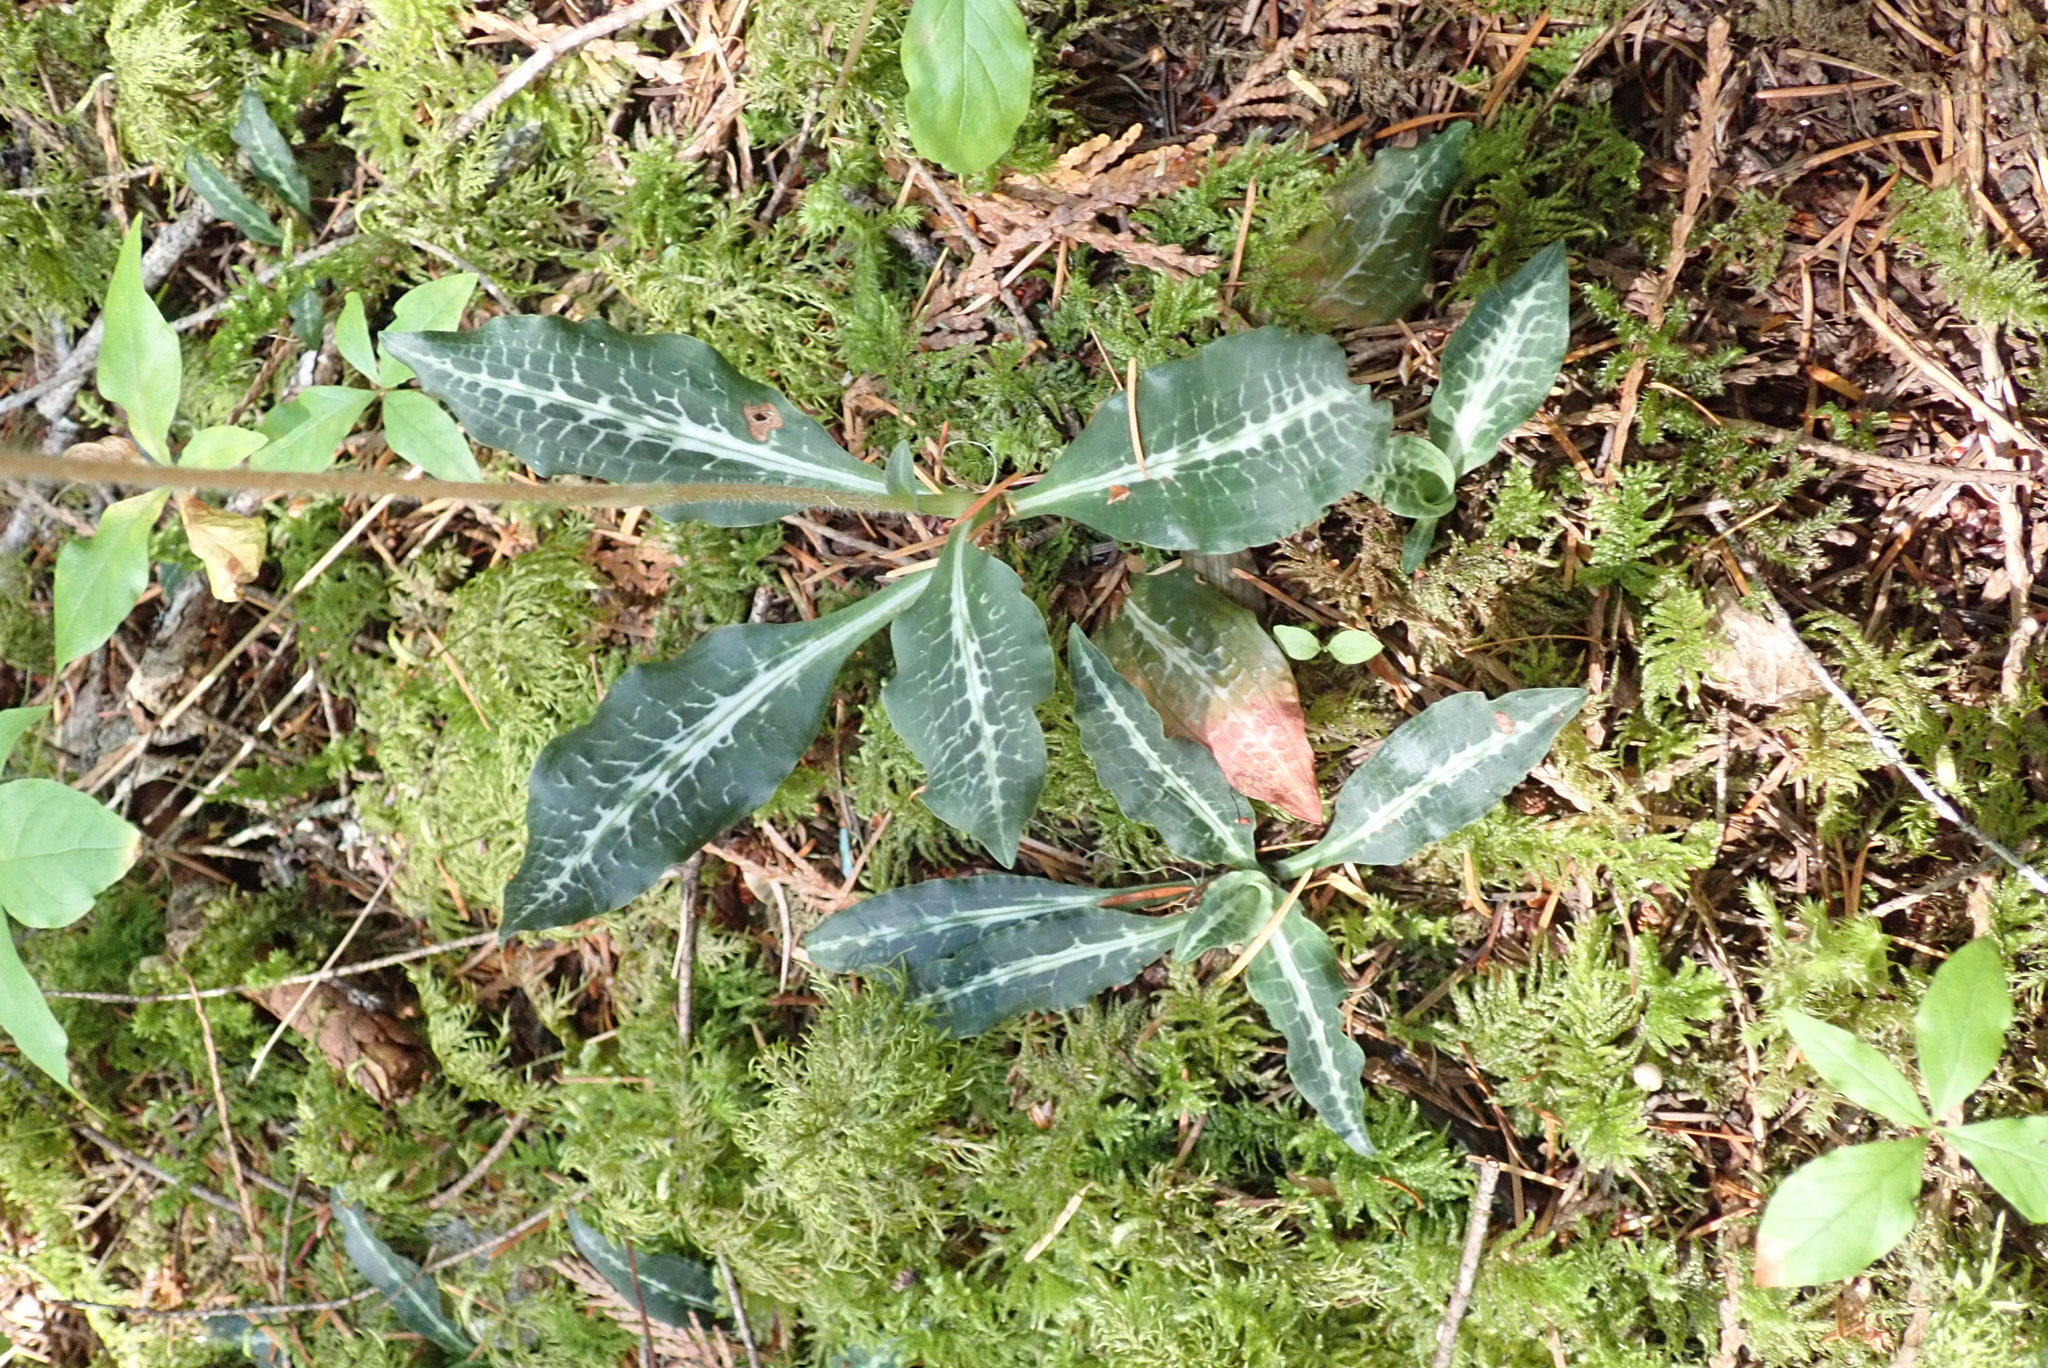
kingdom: Plantae
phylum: Tracheophyta
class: Liliopsida
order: Asparagales
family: Orchidaceae
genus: Goodyera
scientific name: Goodyera oblongifolia
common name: Giant rattlesnake-plantain
